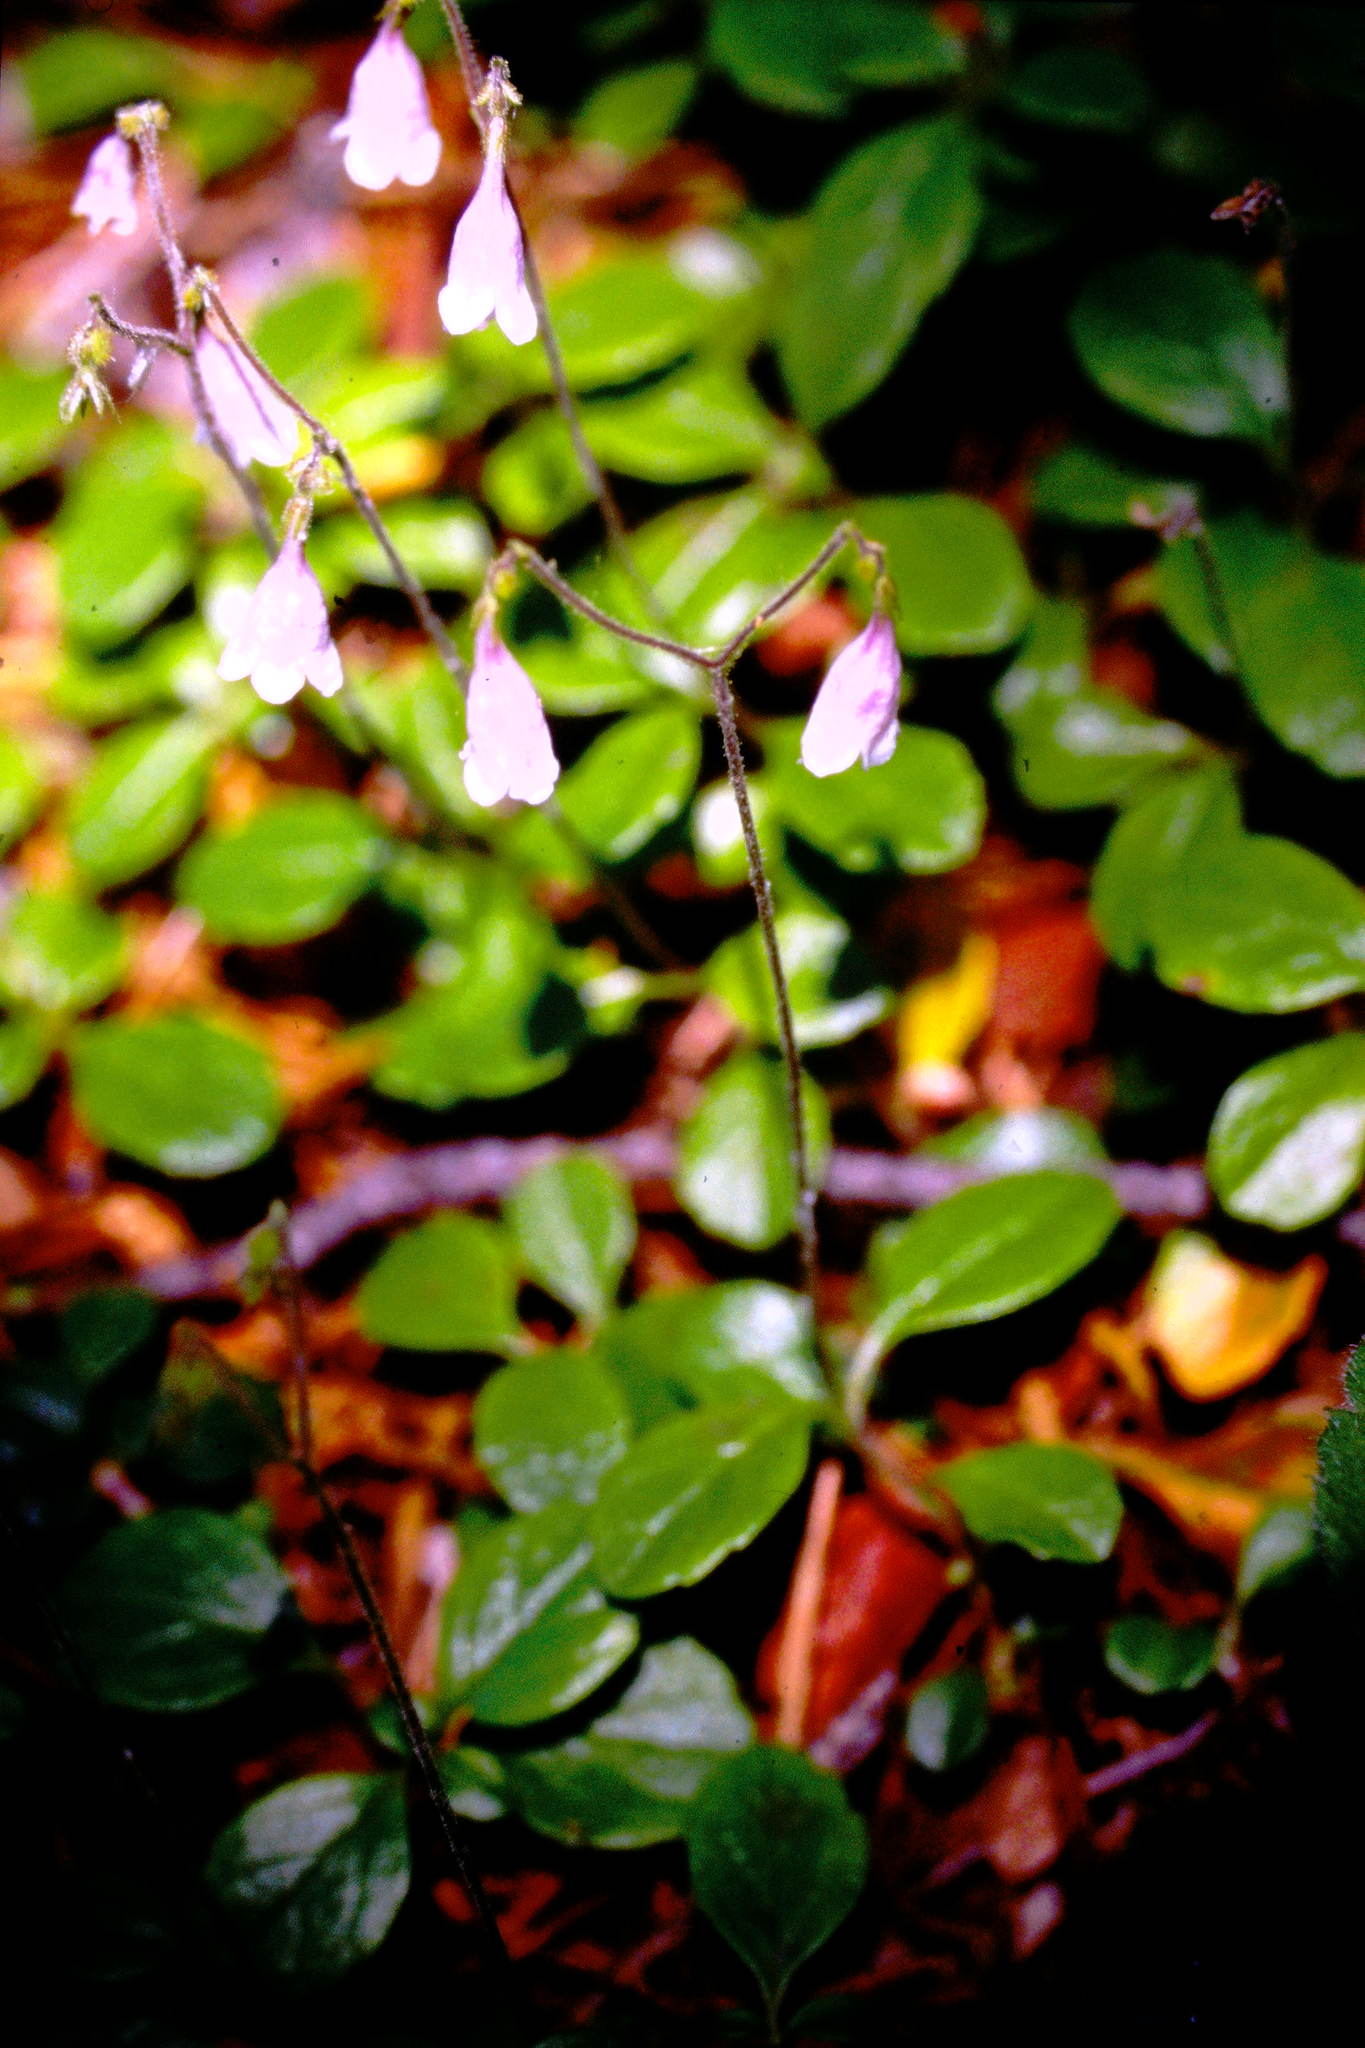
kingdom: Plantae
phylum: Tracheophyta
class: Magnoliopsida
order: Dipsacales
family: Caprifoliaceae
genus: Linnaea
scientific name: Linnaea borealis
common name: Twinflower
